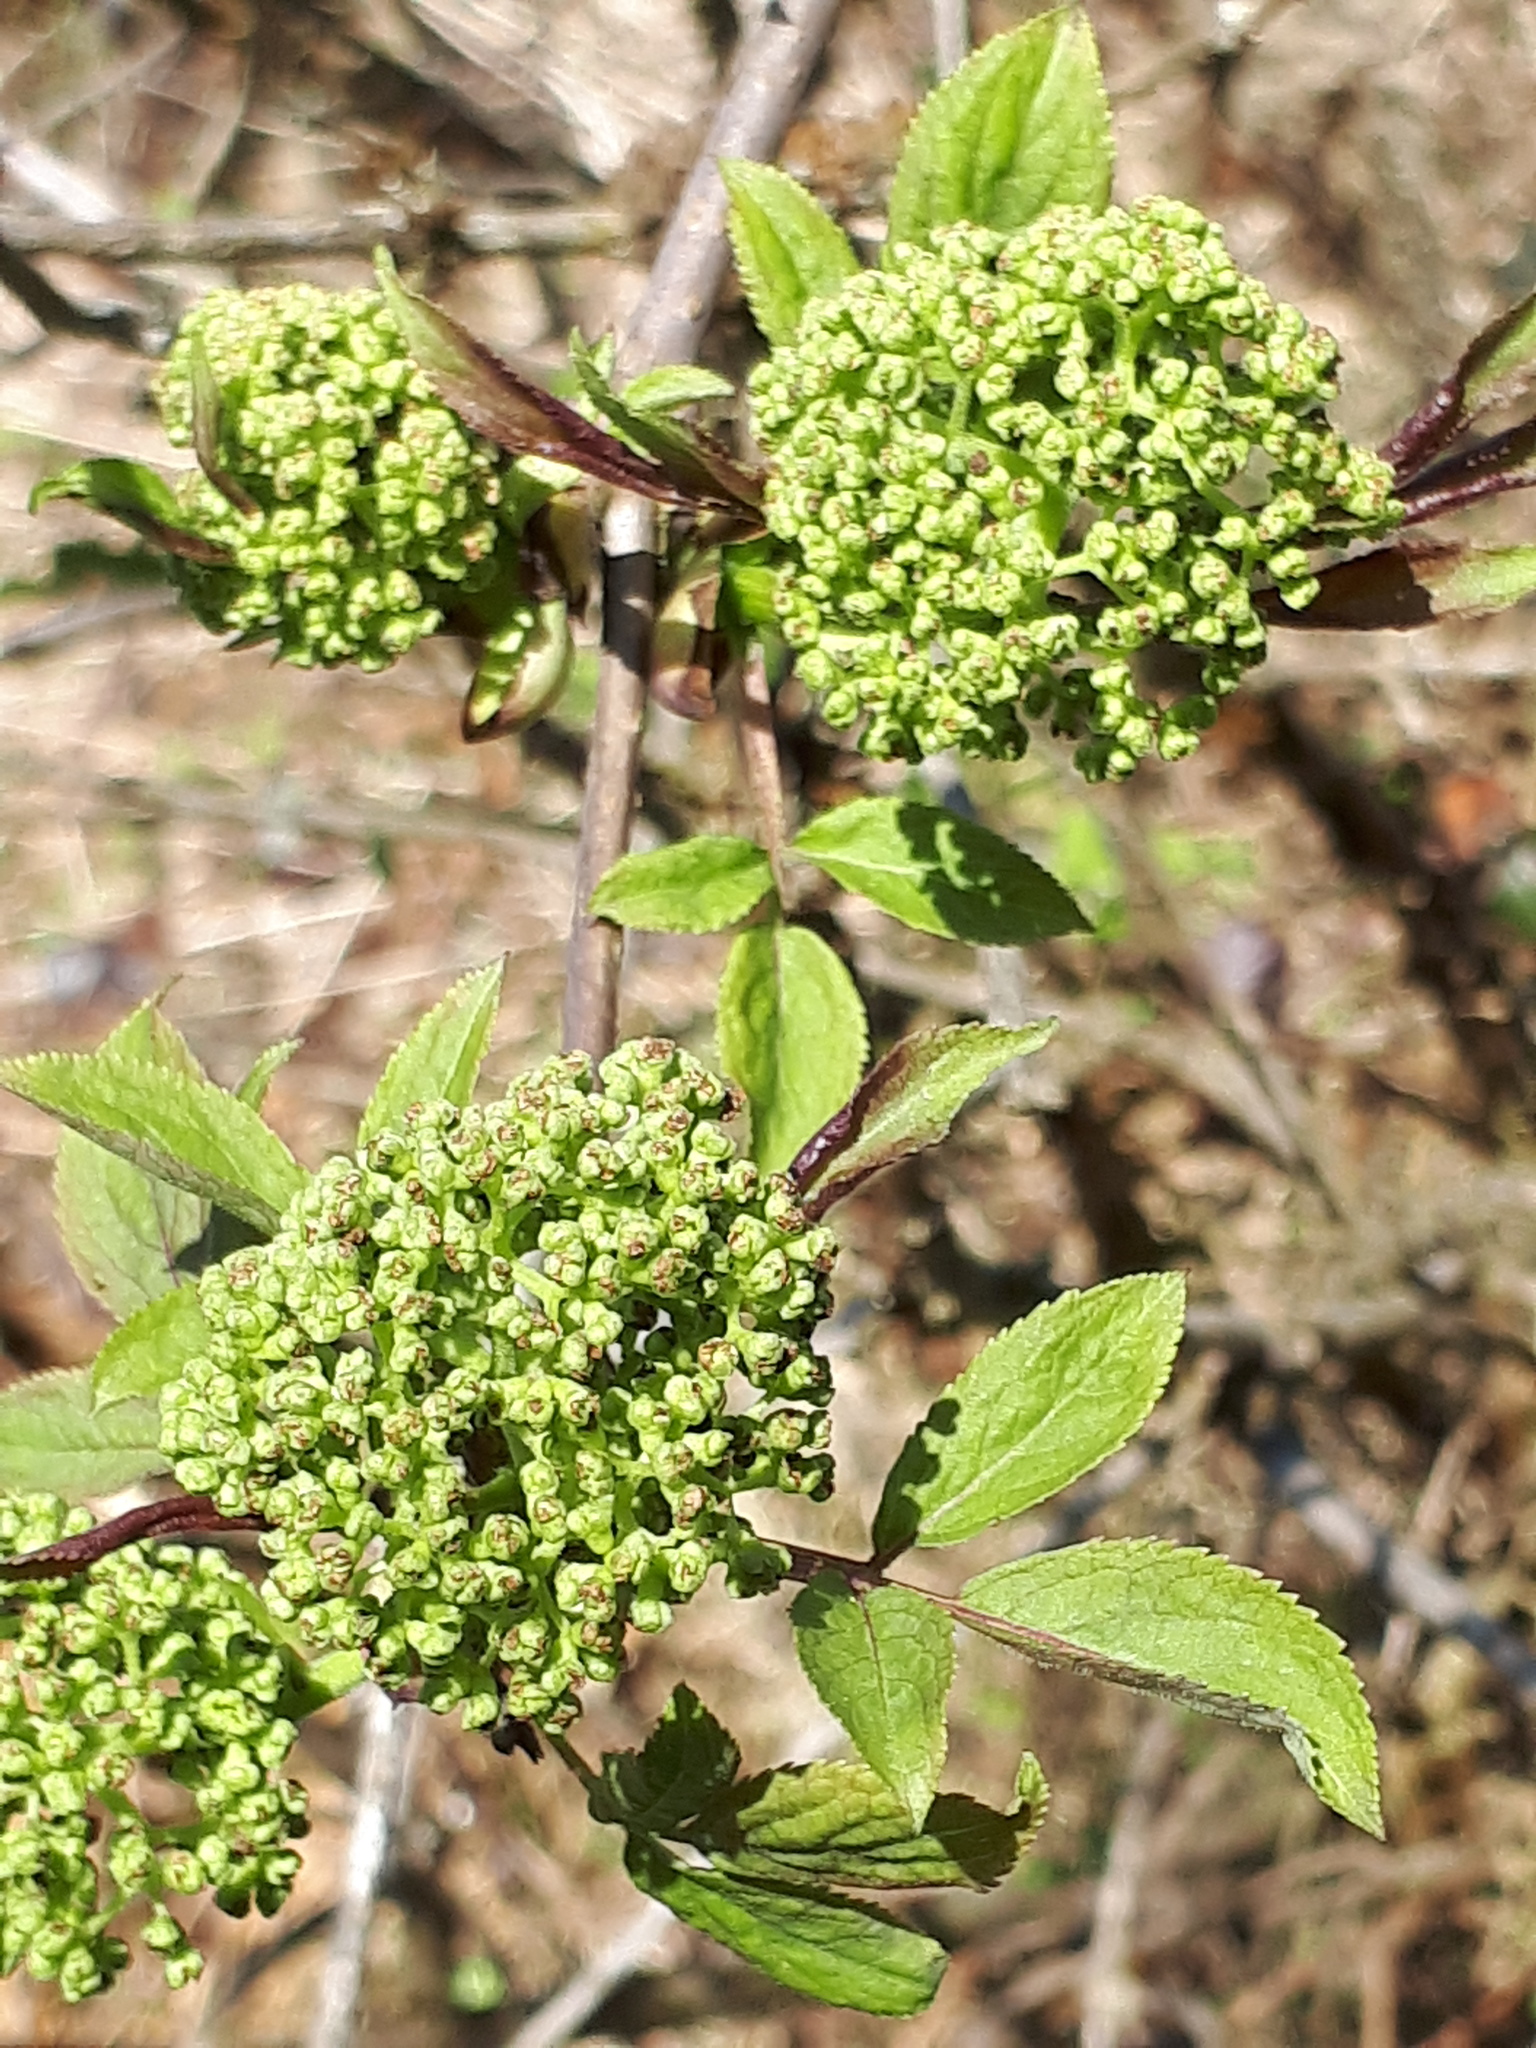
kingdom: Plantae
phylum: Tracheophyta
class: Magnoliopsida
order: Dipsacales
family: Viburnaceae
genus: Sambucus
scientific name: Sambucus racemosa
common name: Red-berried elder
